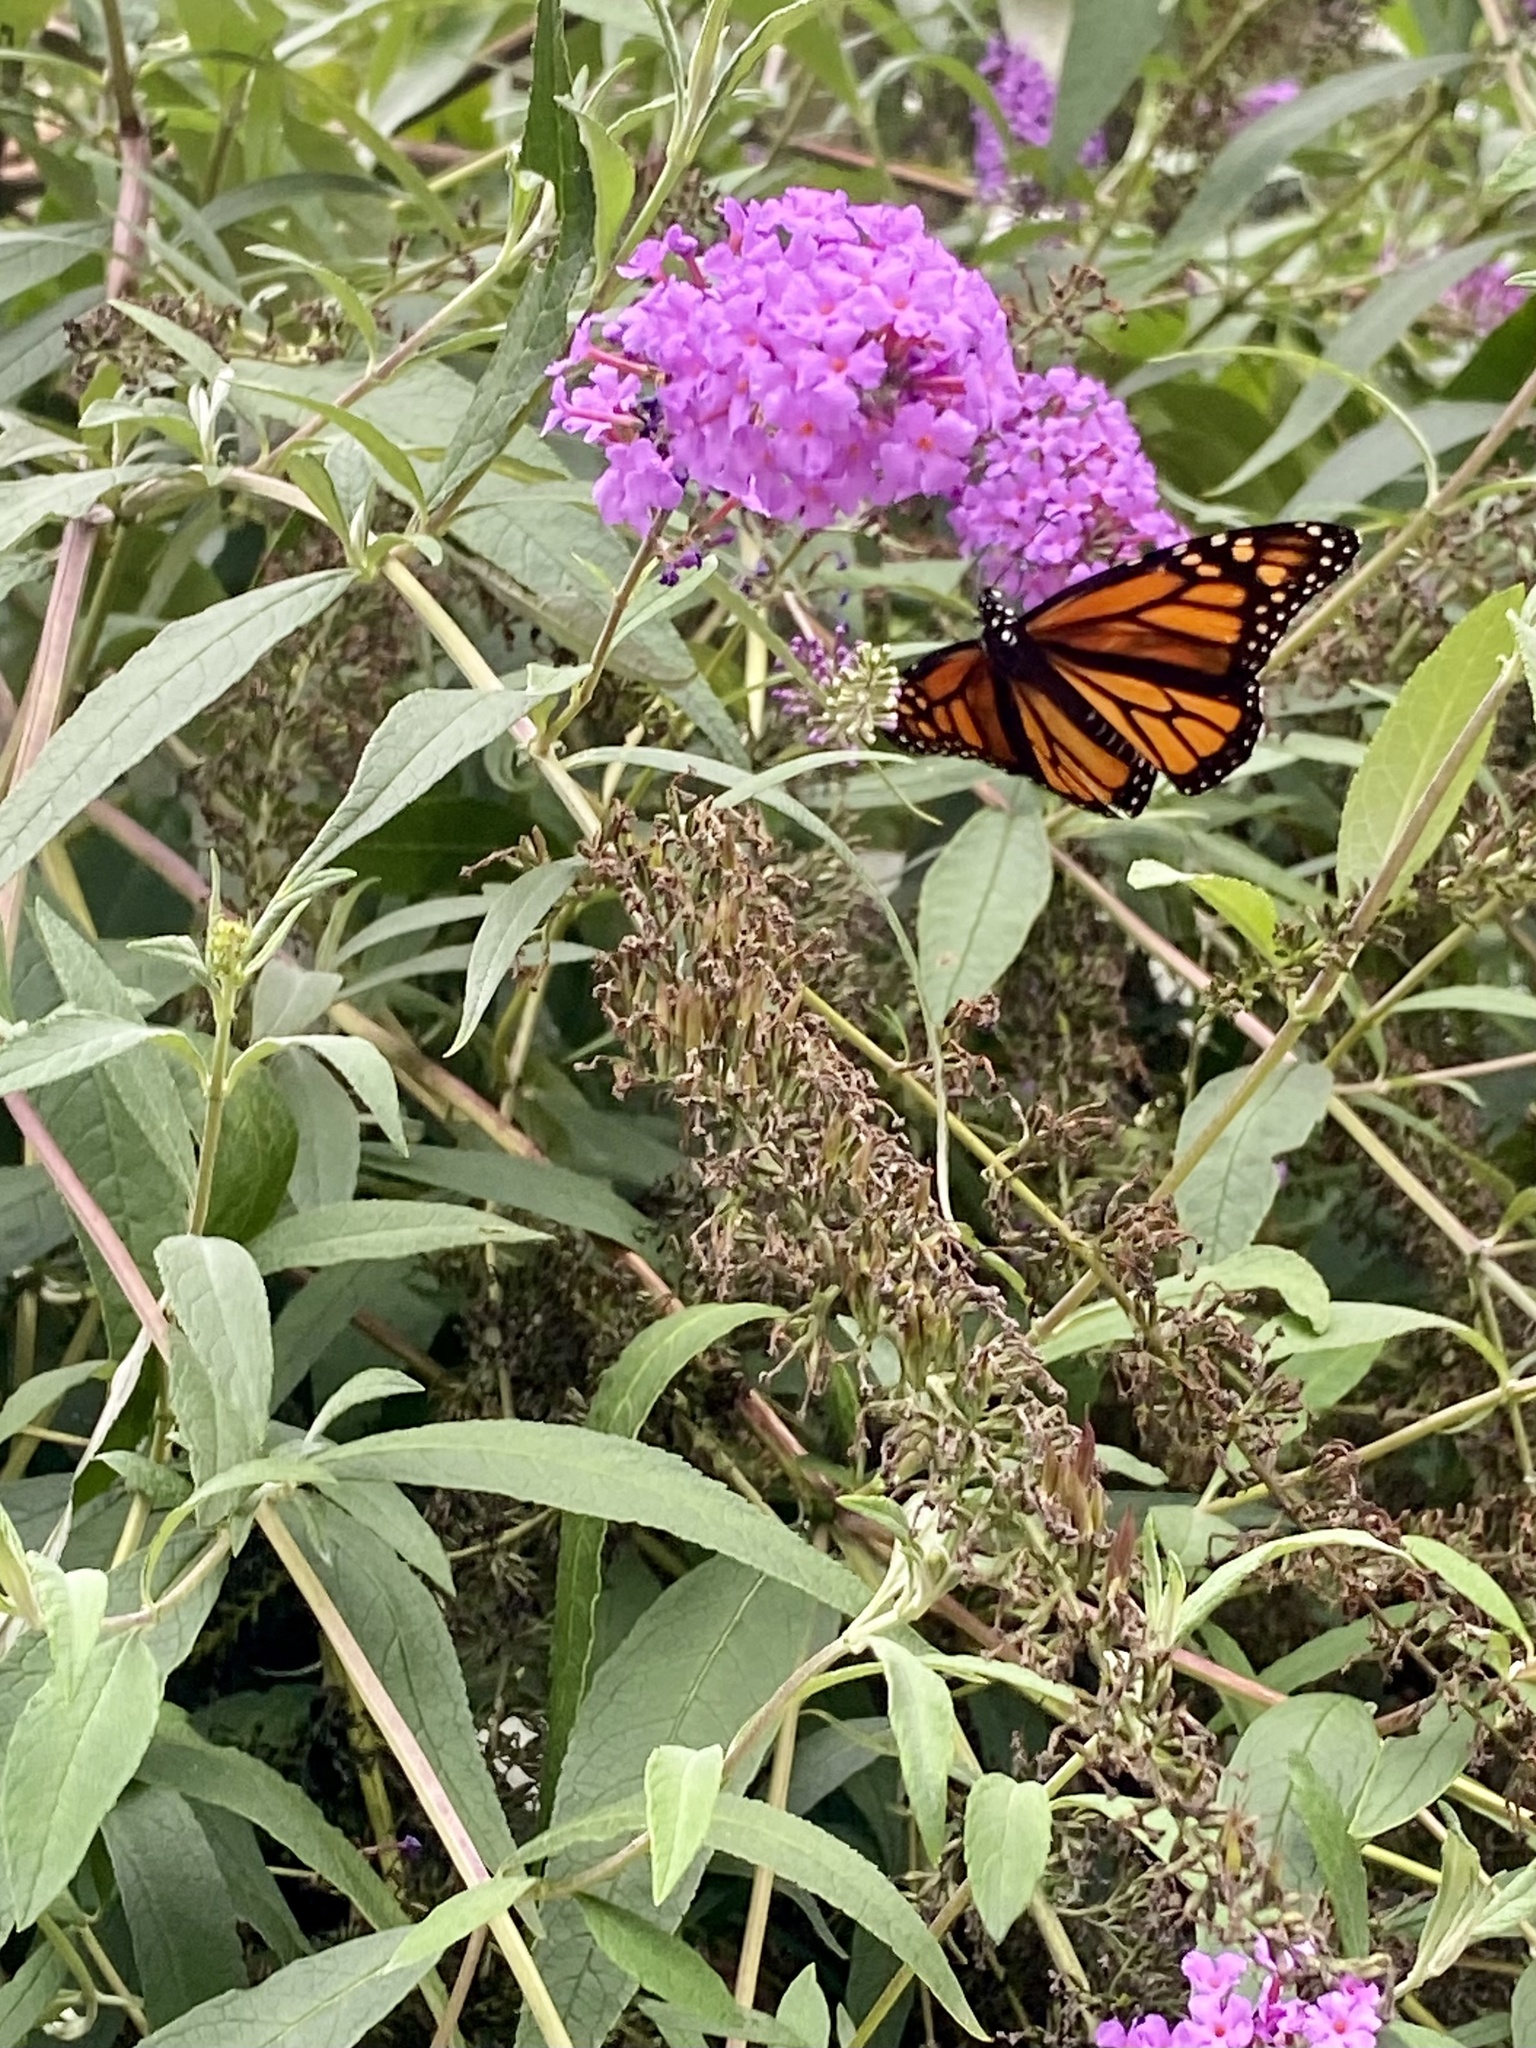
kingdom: Animalia
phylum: Arthropoda
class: Insecta
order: Lepidoptera
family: Nymphalidae
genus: Danaus
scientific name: Danaus plexippus
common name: Monarch
